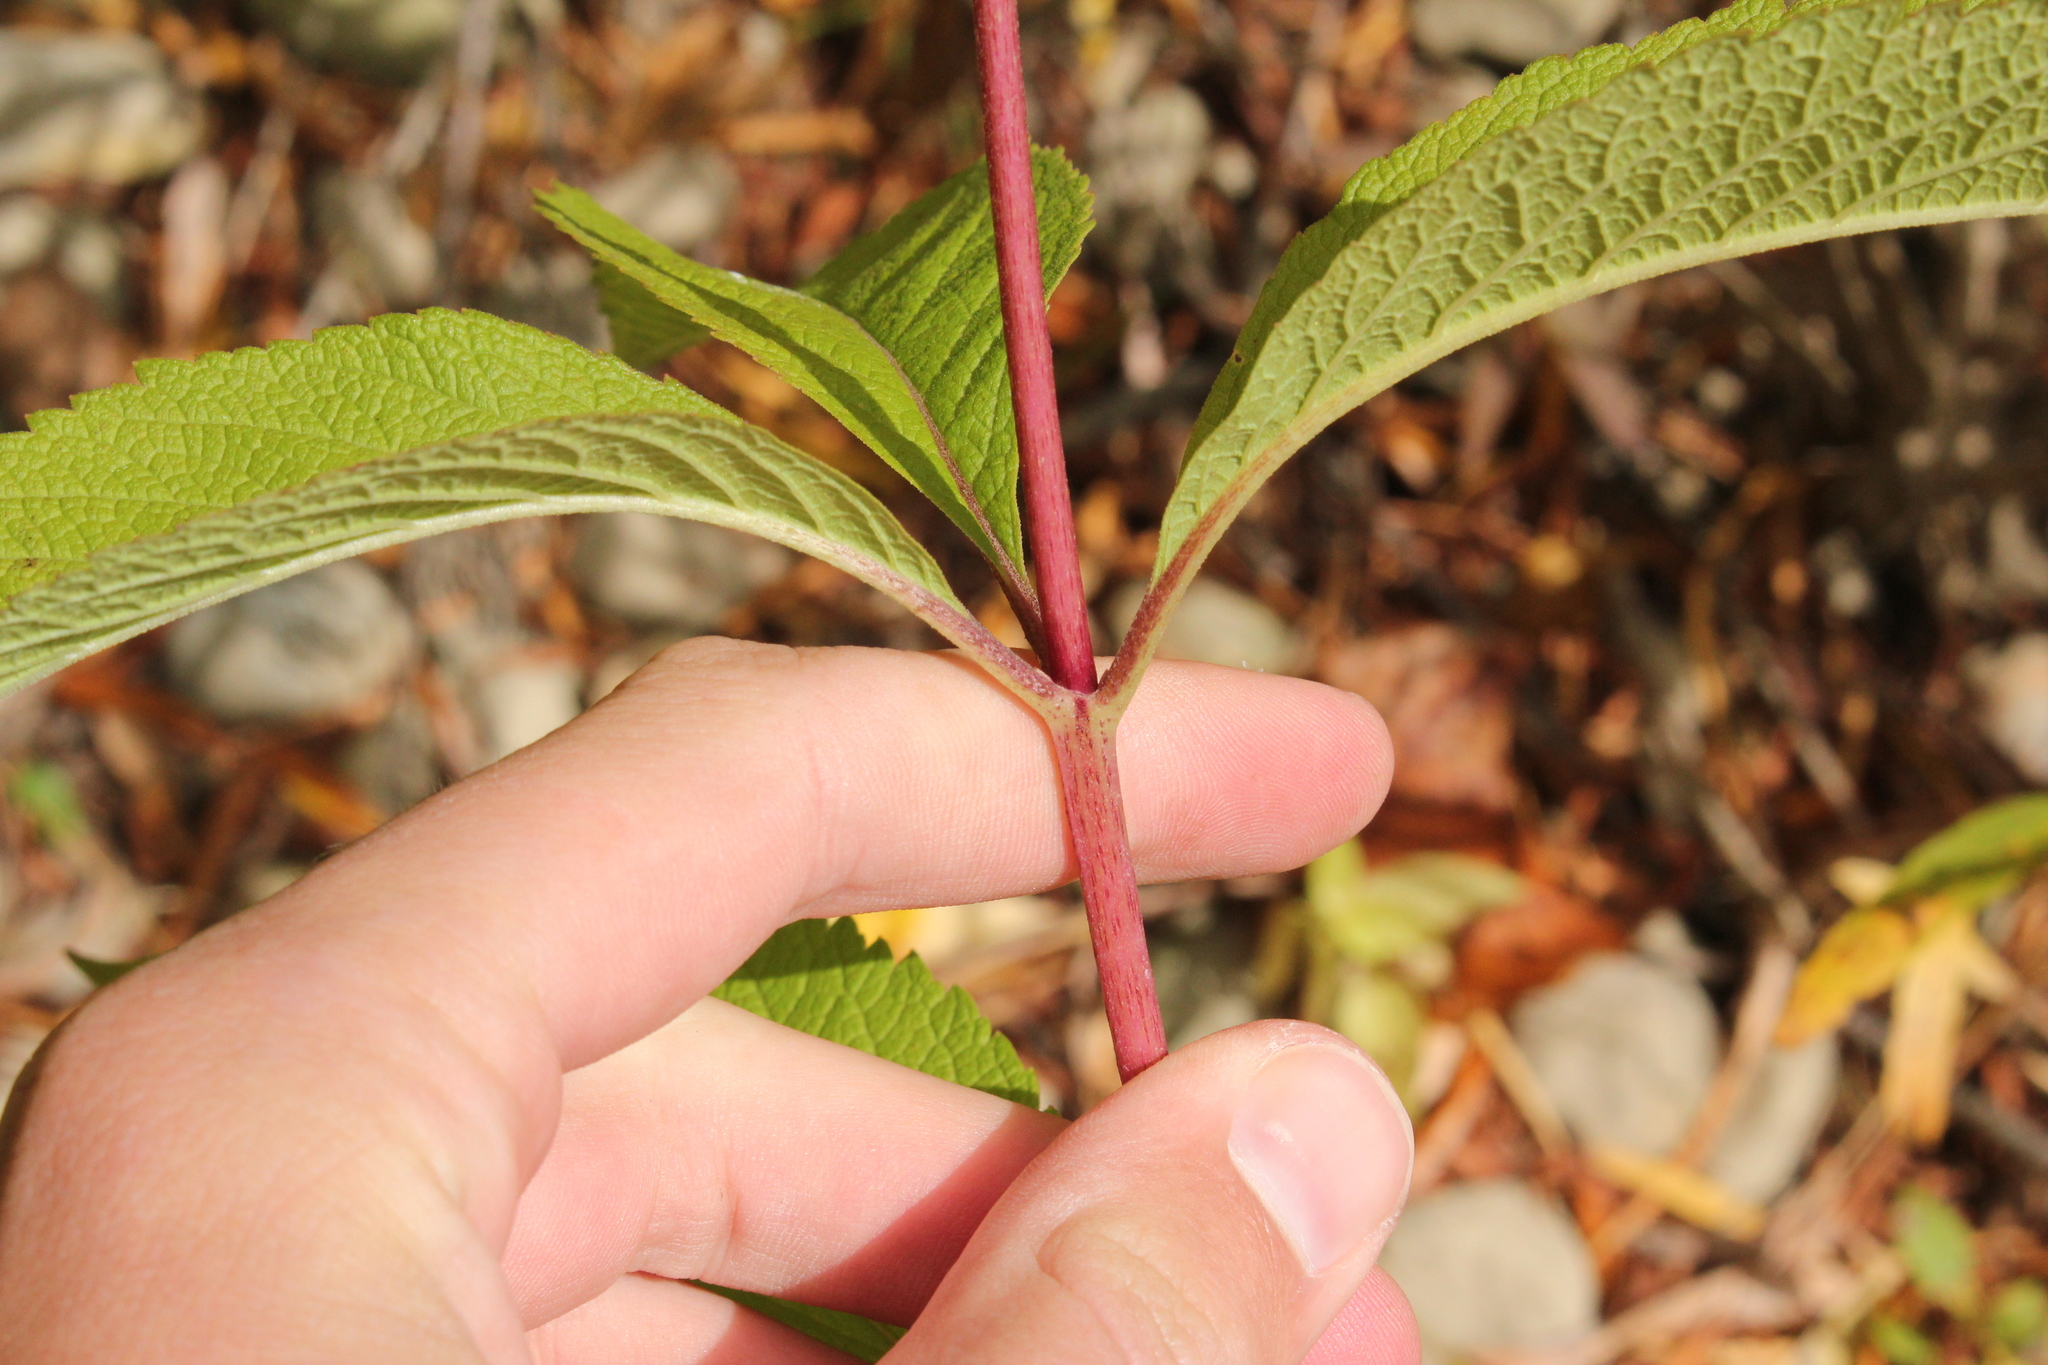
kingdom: Plantae
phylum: Tracheophyta
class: Magnoliopsida
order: Asterales
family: Asteraceae
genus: Eutrochium
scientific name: Eutrochium maculatum
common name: Spotted joe pye weed
